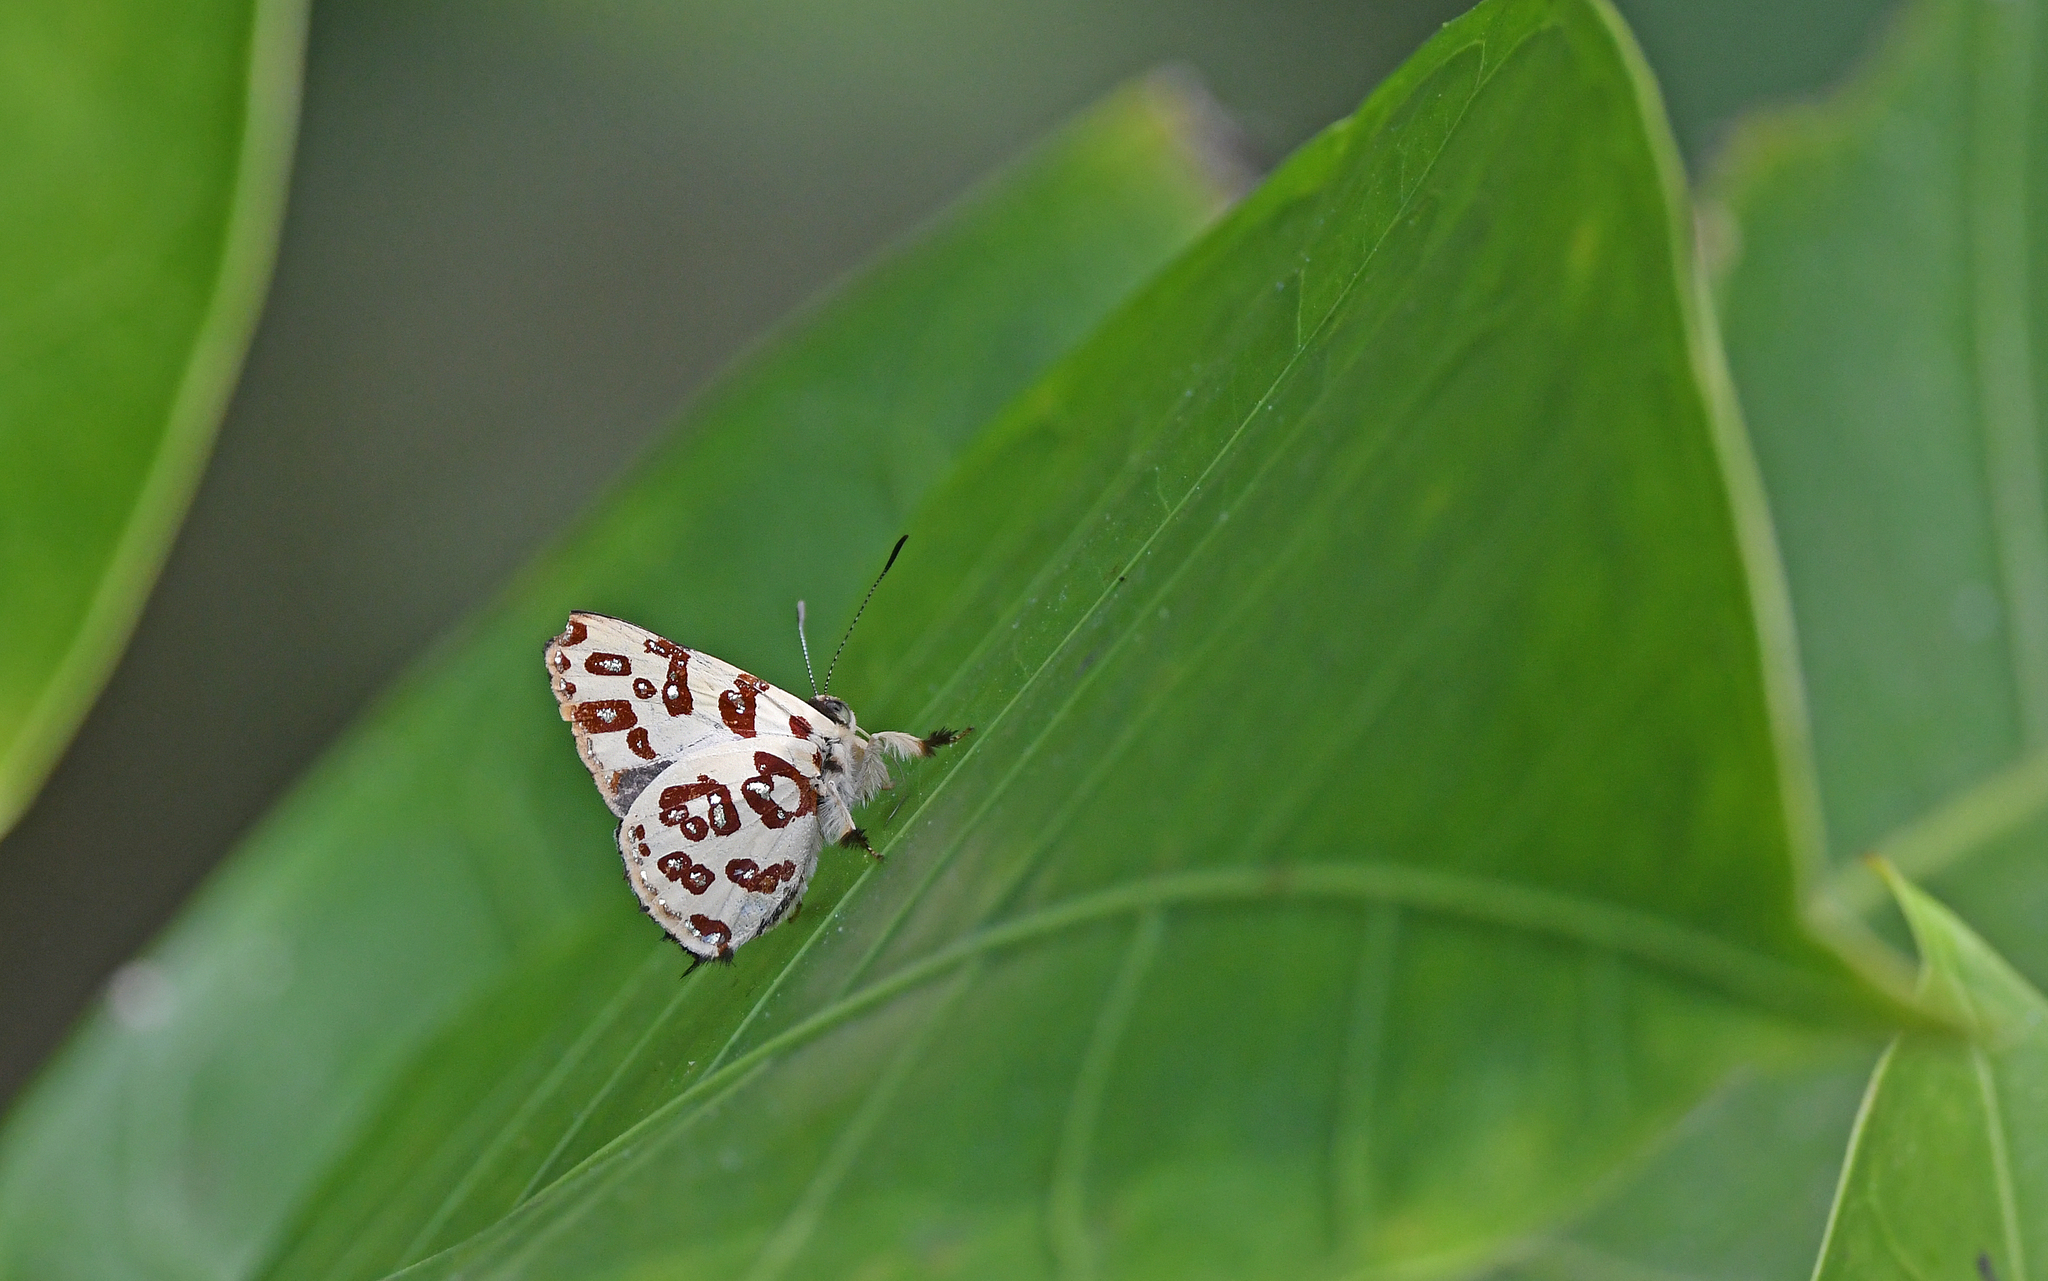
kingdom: Animalia
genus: Anteros
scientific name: Anteros bracteatus
